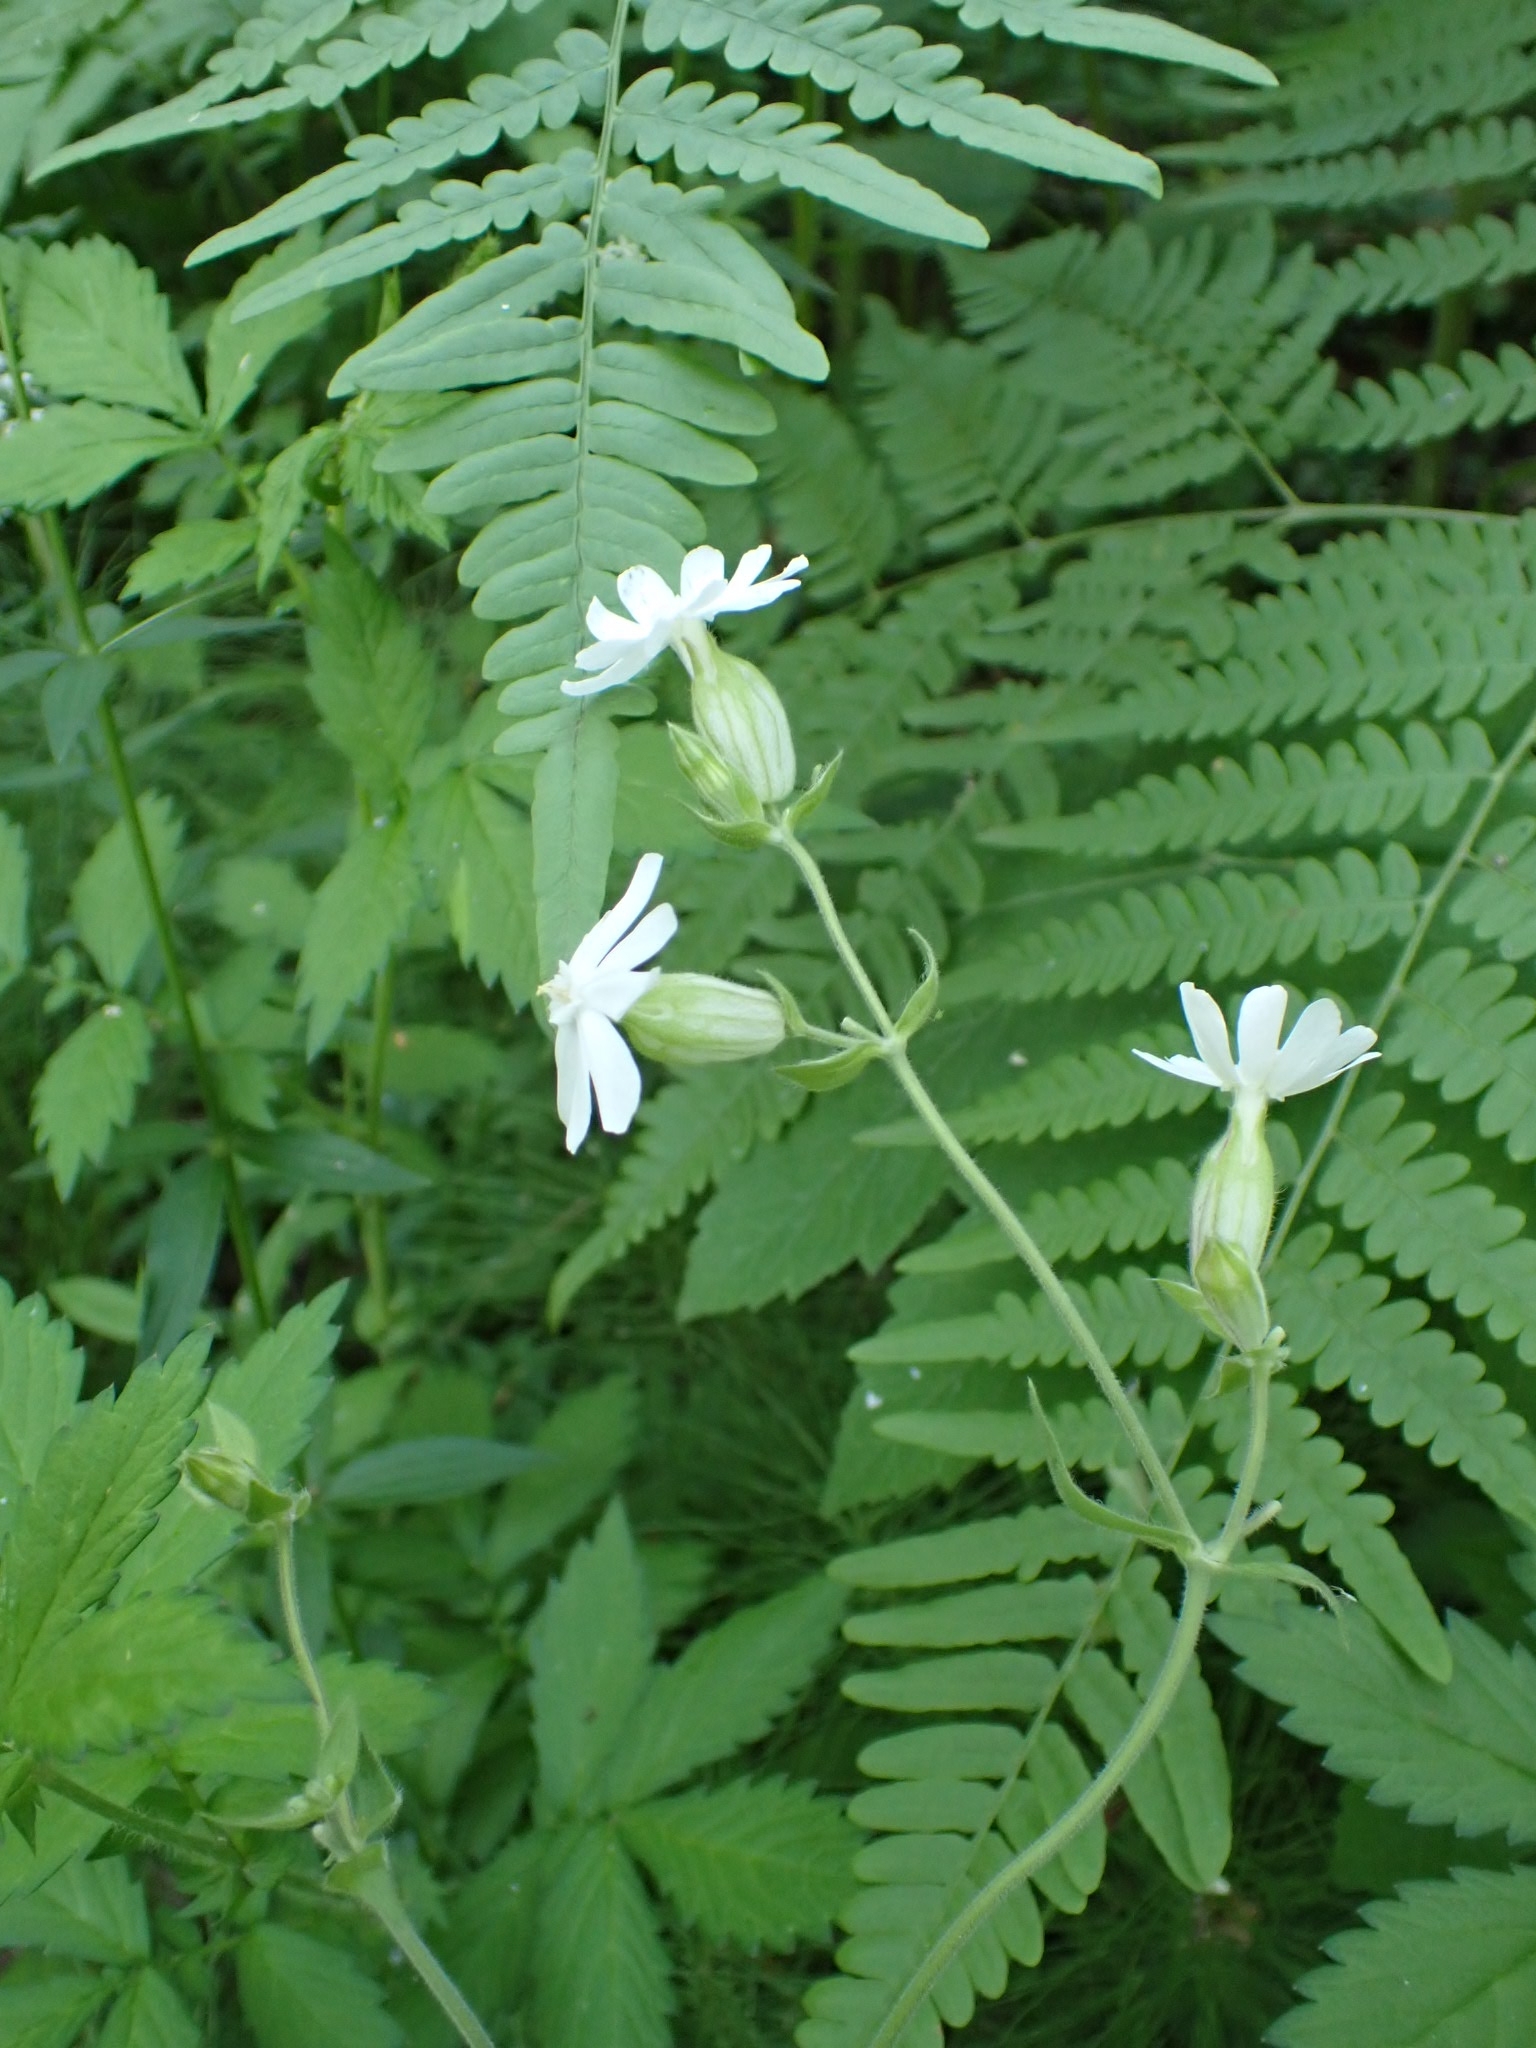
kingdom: Plantae
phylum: Tracheophyta
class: Magnoliopsida
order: Caryophyllales
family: Caryophyllaceae
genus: Silene
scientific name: Silene latifolia
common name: White campion
